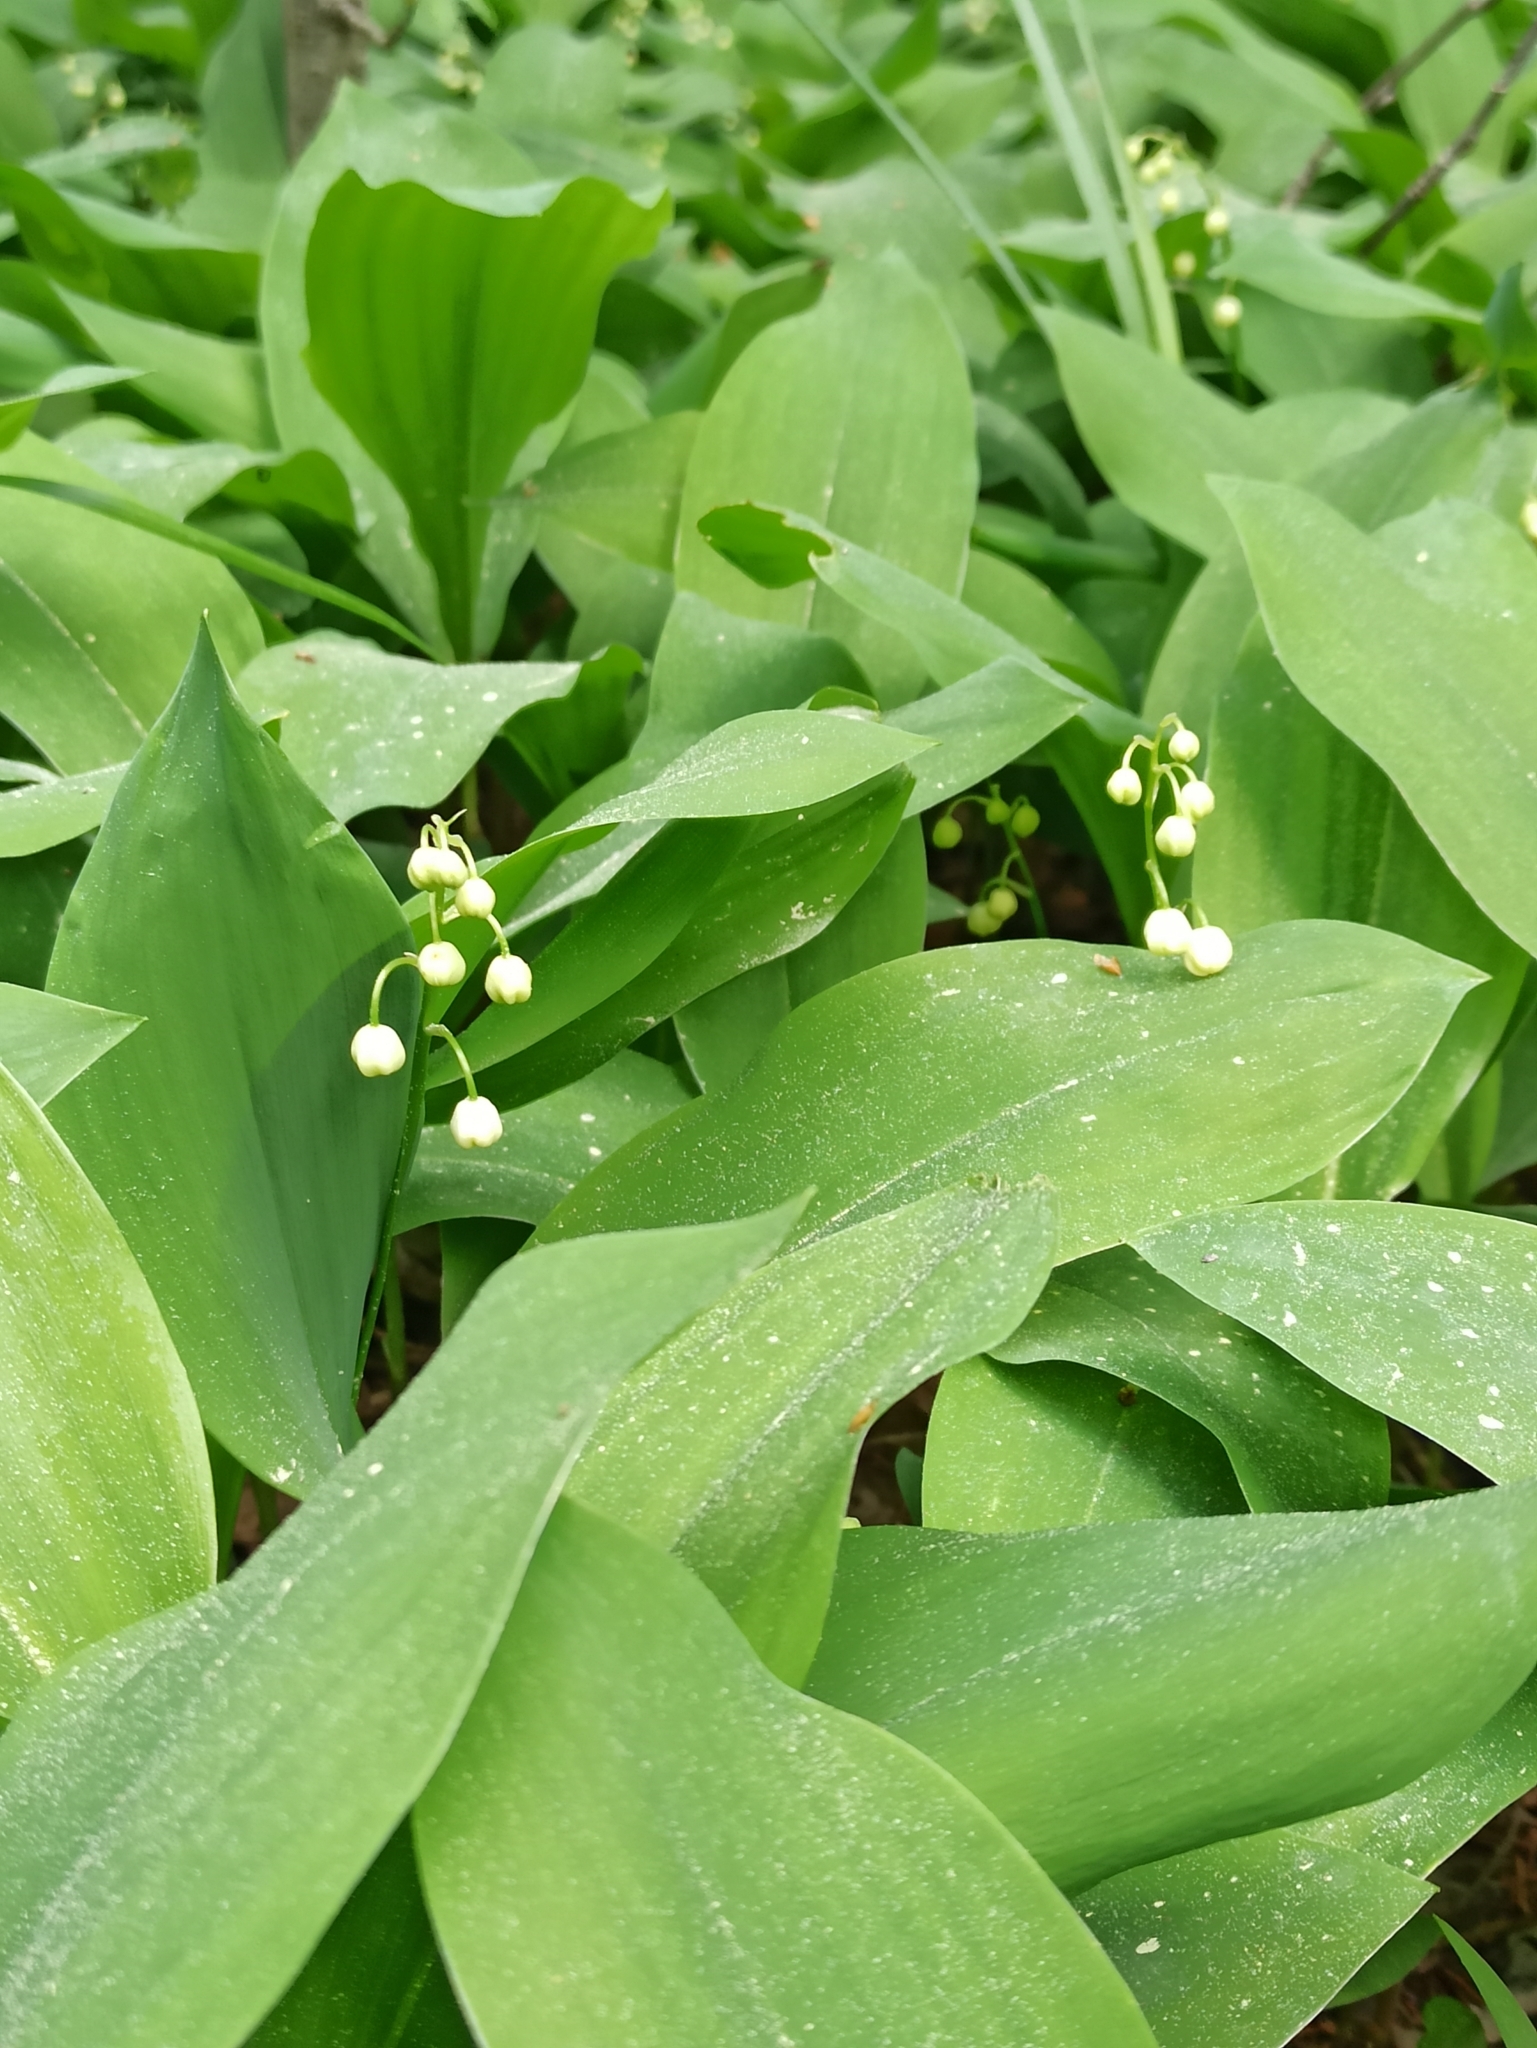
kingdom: Plantae
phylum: Tracheophyta
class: Liliopsida
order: Asparagales
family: Asparagaceae
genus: Convallaria
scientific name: Convallaria majalis
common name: Lily-of-the-valley
